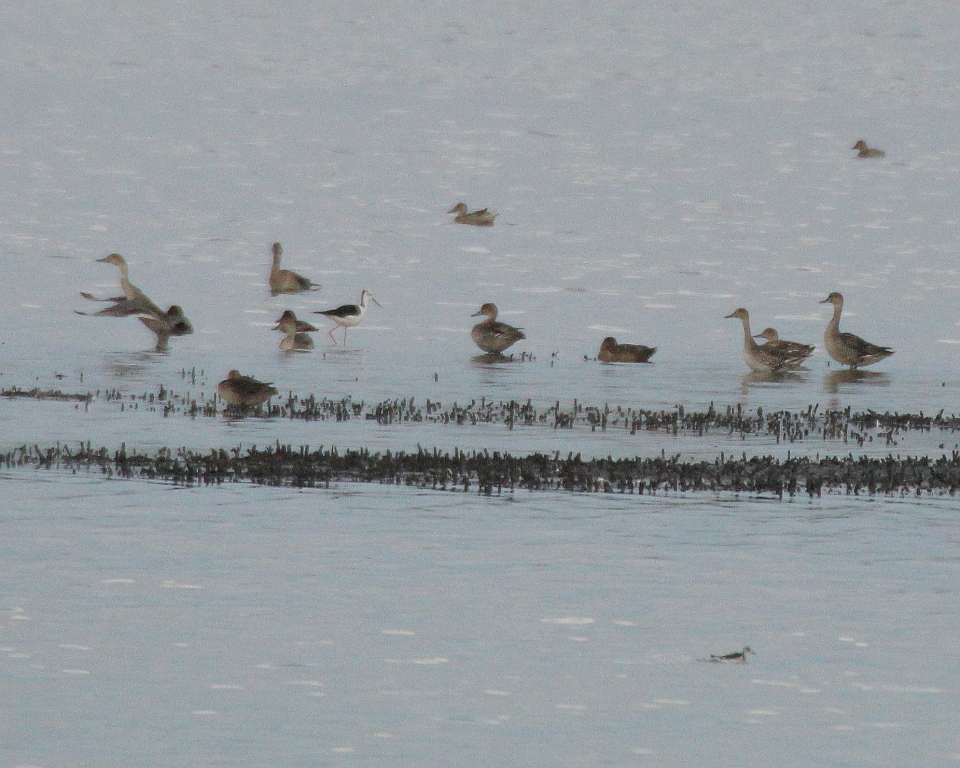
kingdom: Animalia
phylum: Chordata
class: Aves
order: Anseriformes
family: Anatidae
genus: Anas
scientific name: Anas acuta
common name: Northern pintail
